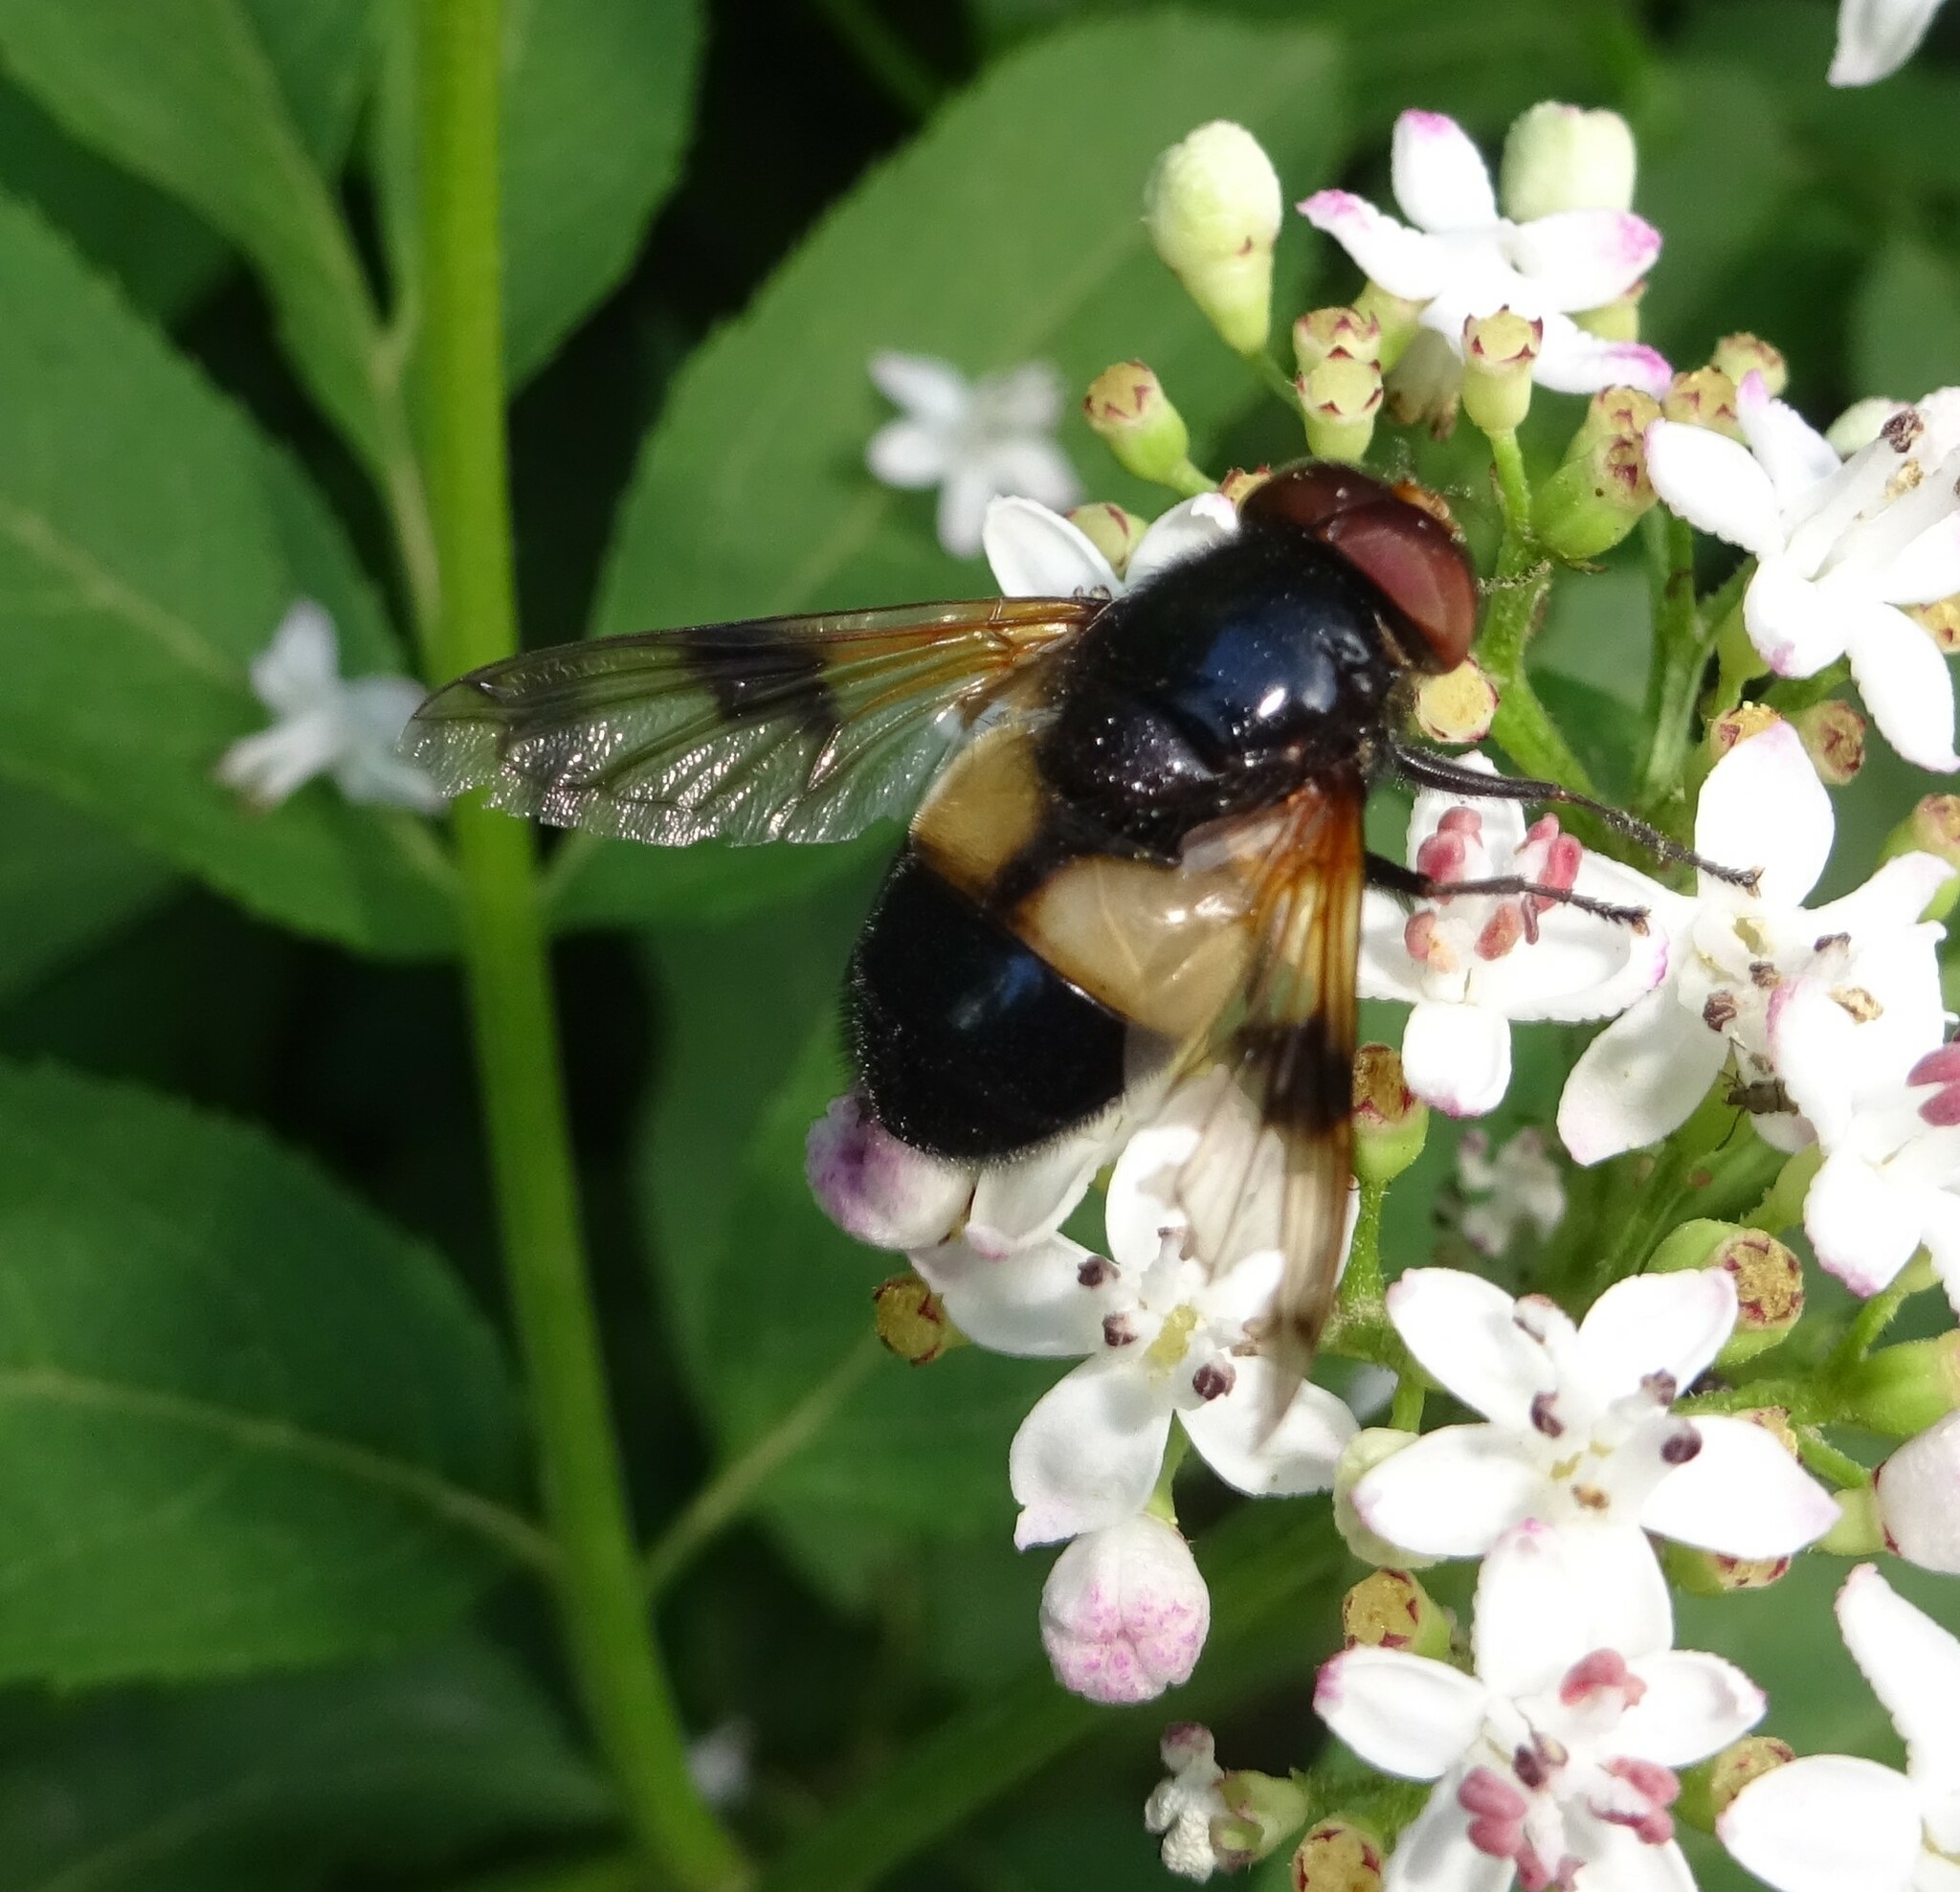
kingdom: Animalia
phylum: Arthropoda
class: Insecta
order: Diptera
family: Syrphidae
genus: Volucella
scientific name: Volucella pellucens
